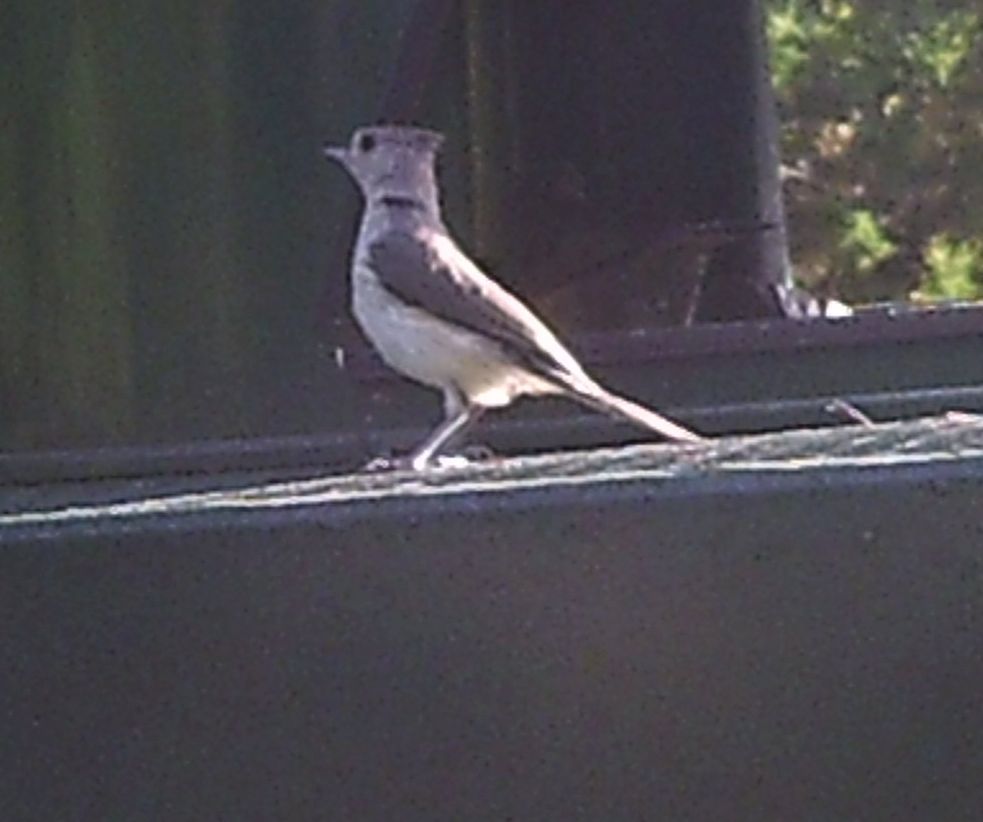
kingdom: Animalia
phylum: Chordata
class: Aves
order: Passeriformes
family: Paridae
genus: Baeolophus
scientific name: Baeolophus bicolor
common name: Tufted titmouse
